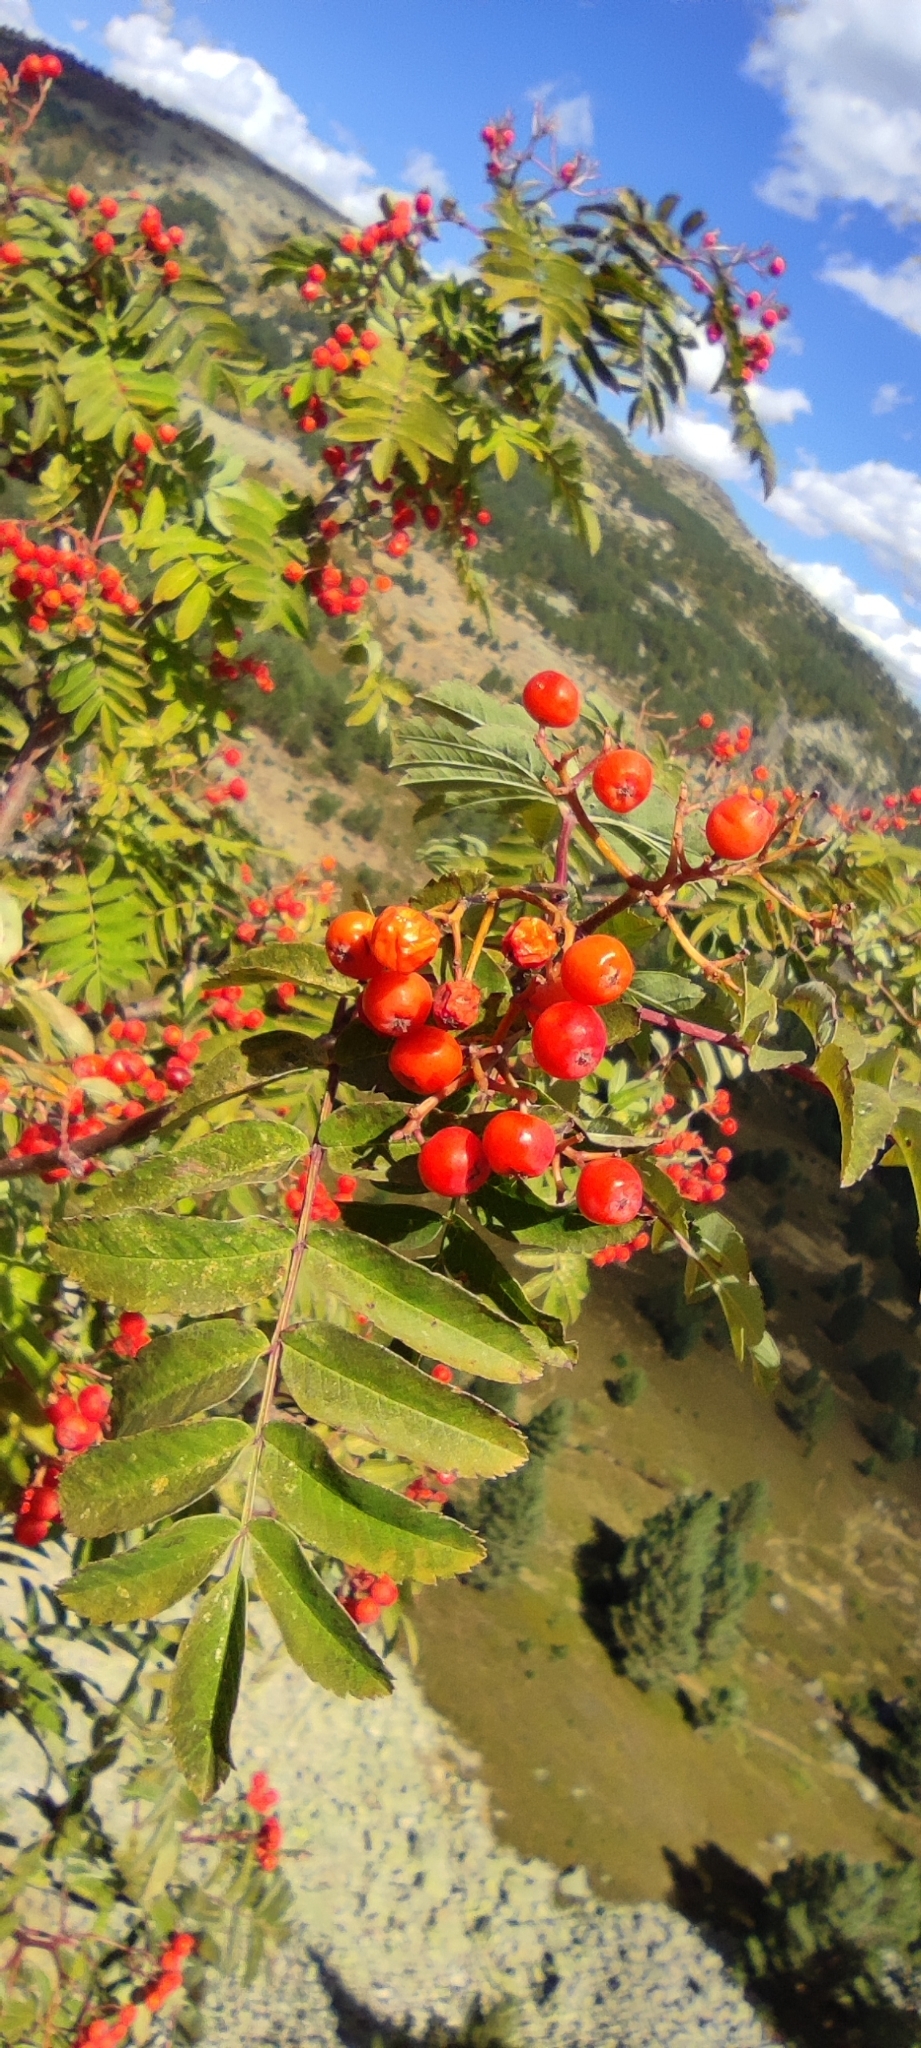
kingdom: Plantae
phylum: Tracheophyta
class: Magnoliopsida
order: Rosales
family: Rosaceae
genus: Sorbus
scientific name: Sorbus aucuparia
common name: Rowan
